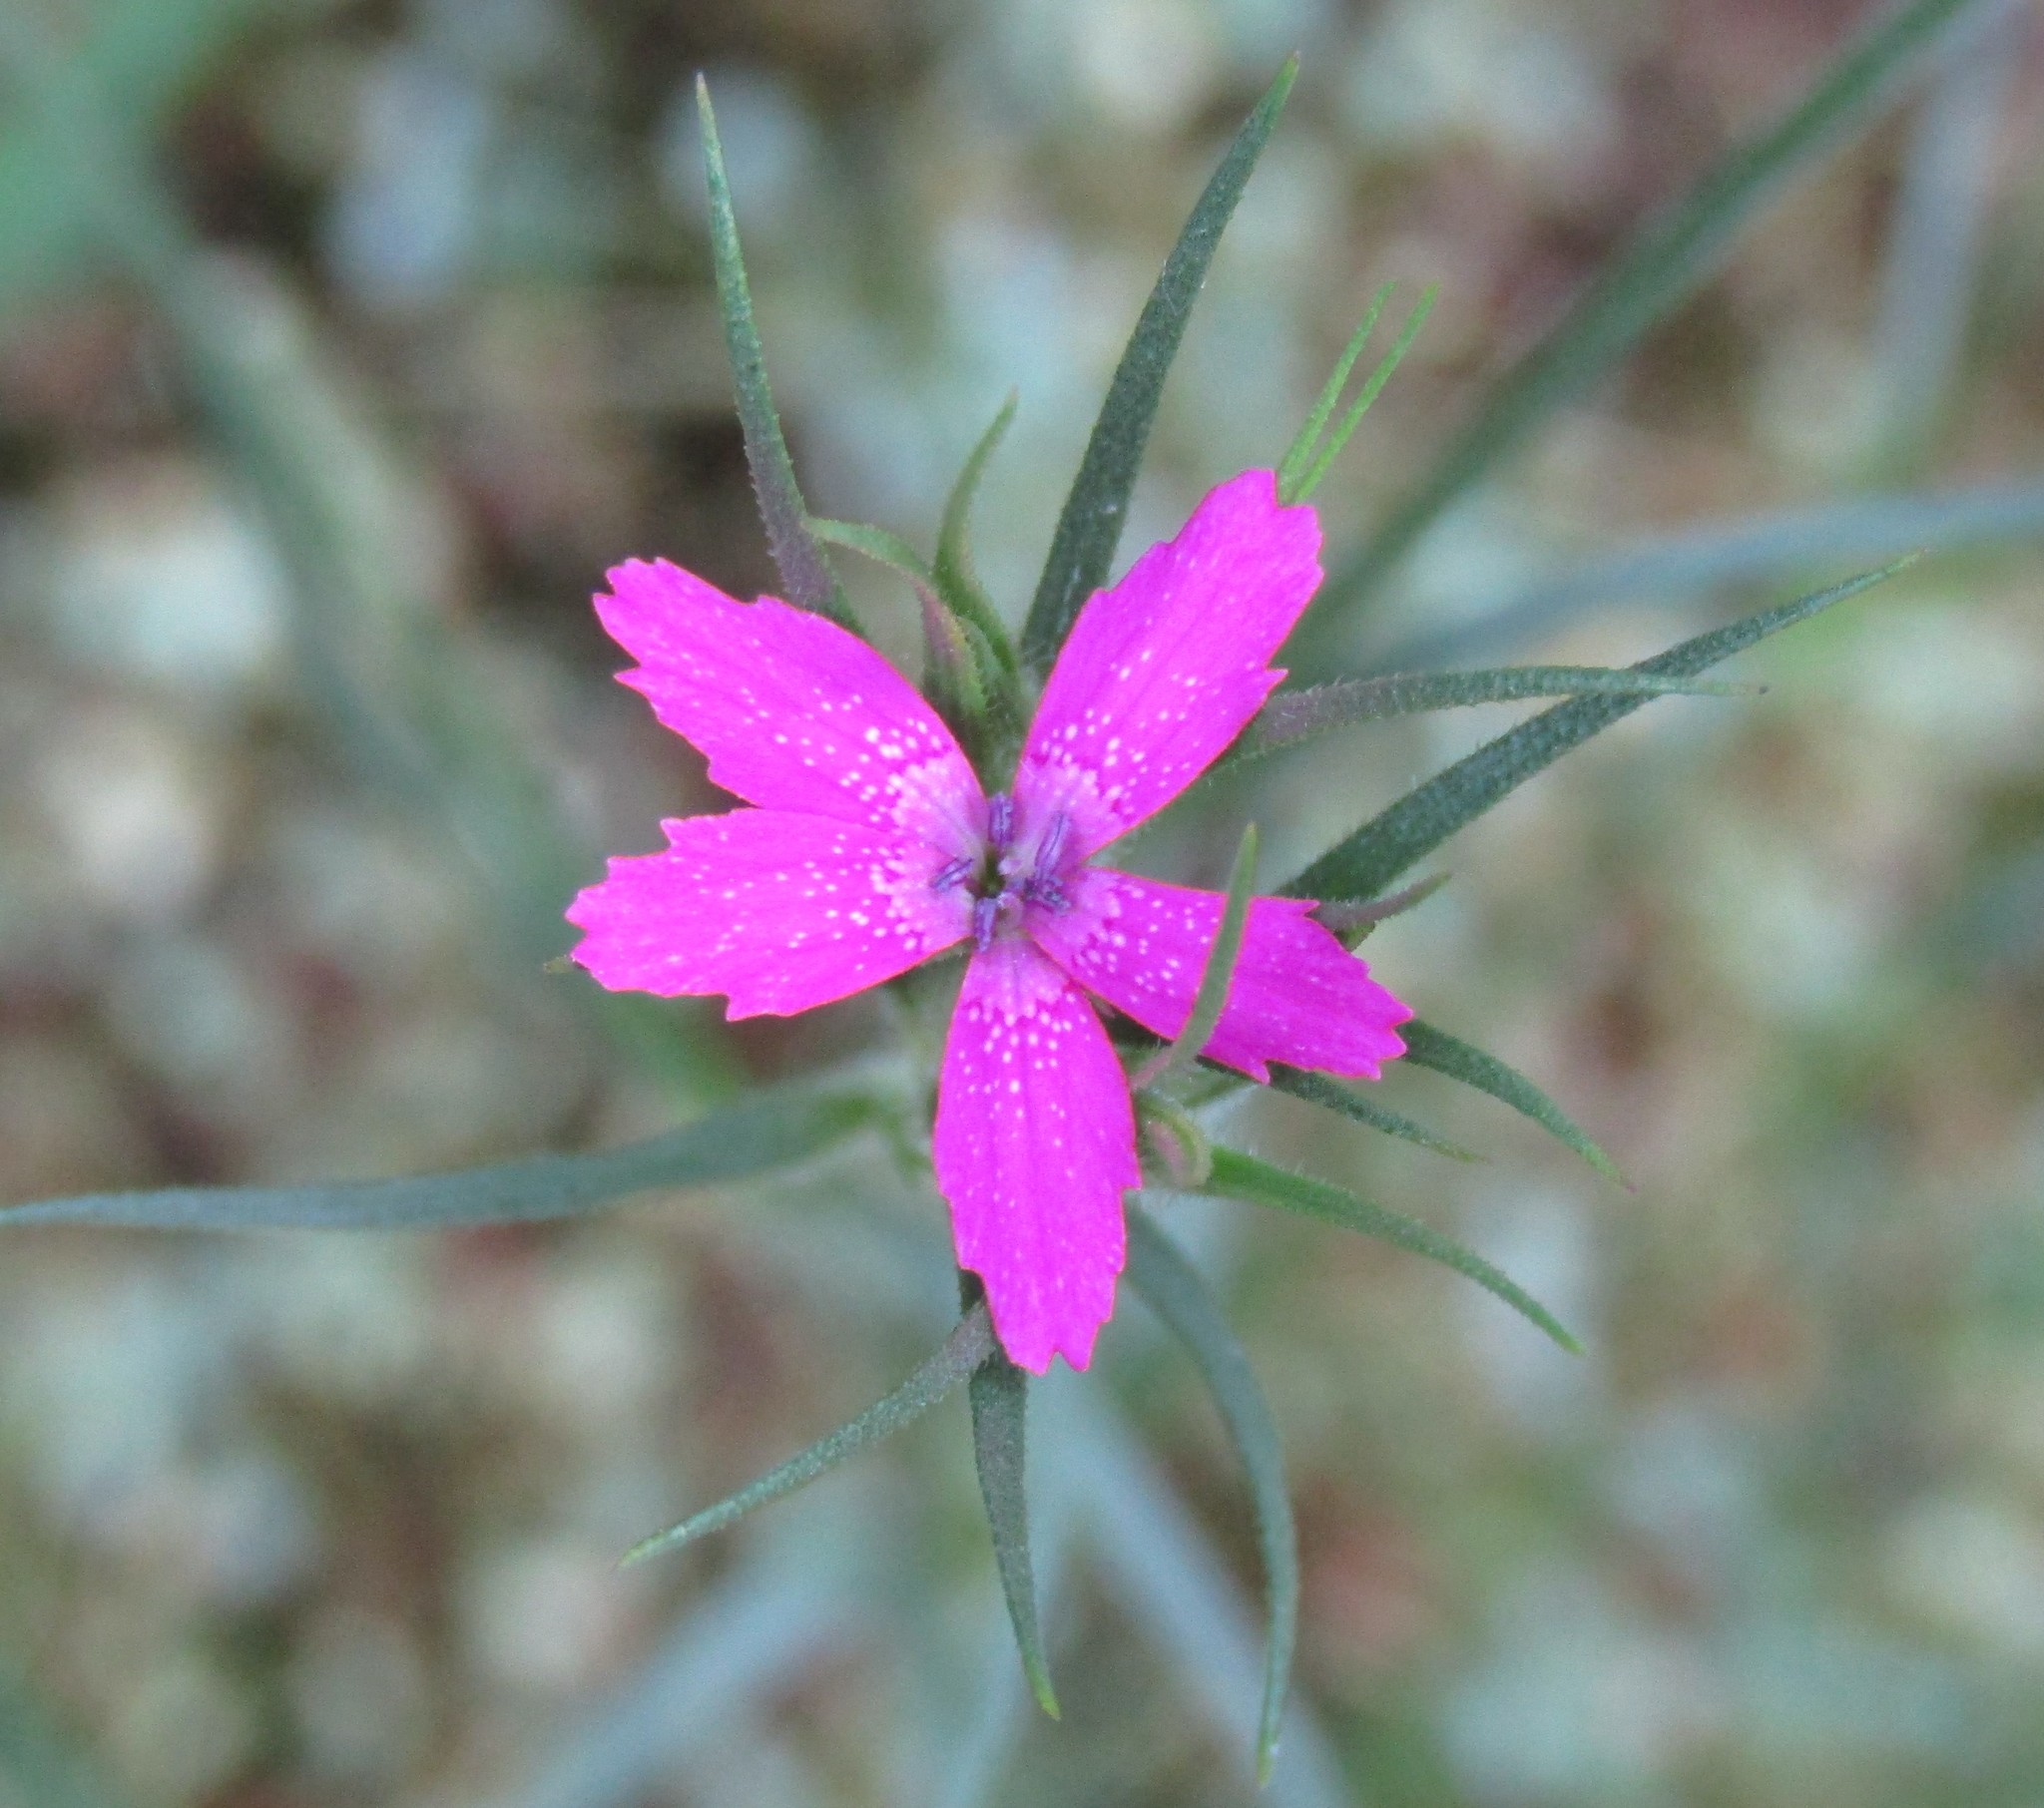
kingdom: Plantae
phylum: Tracheophyta
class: Magnoliopsida
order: Caryophyllales
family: Caryophyllaceae
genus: Dianthus
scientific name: Dianthus armeria
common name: Deptford pink
